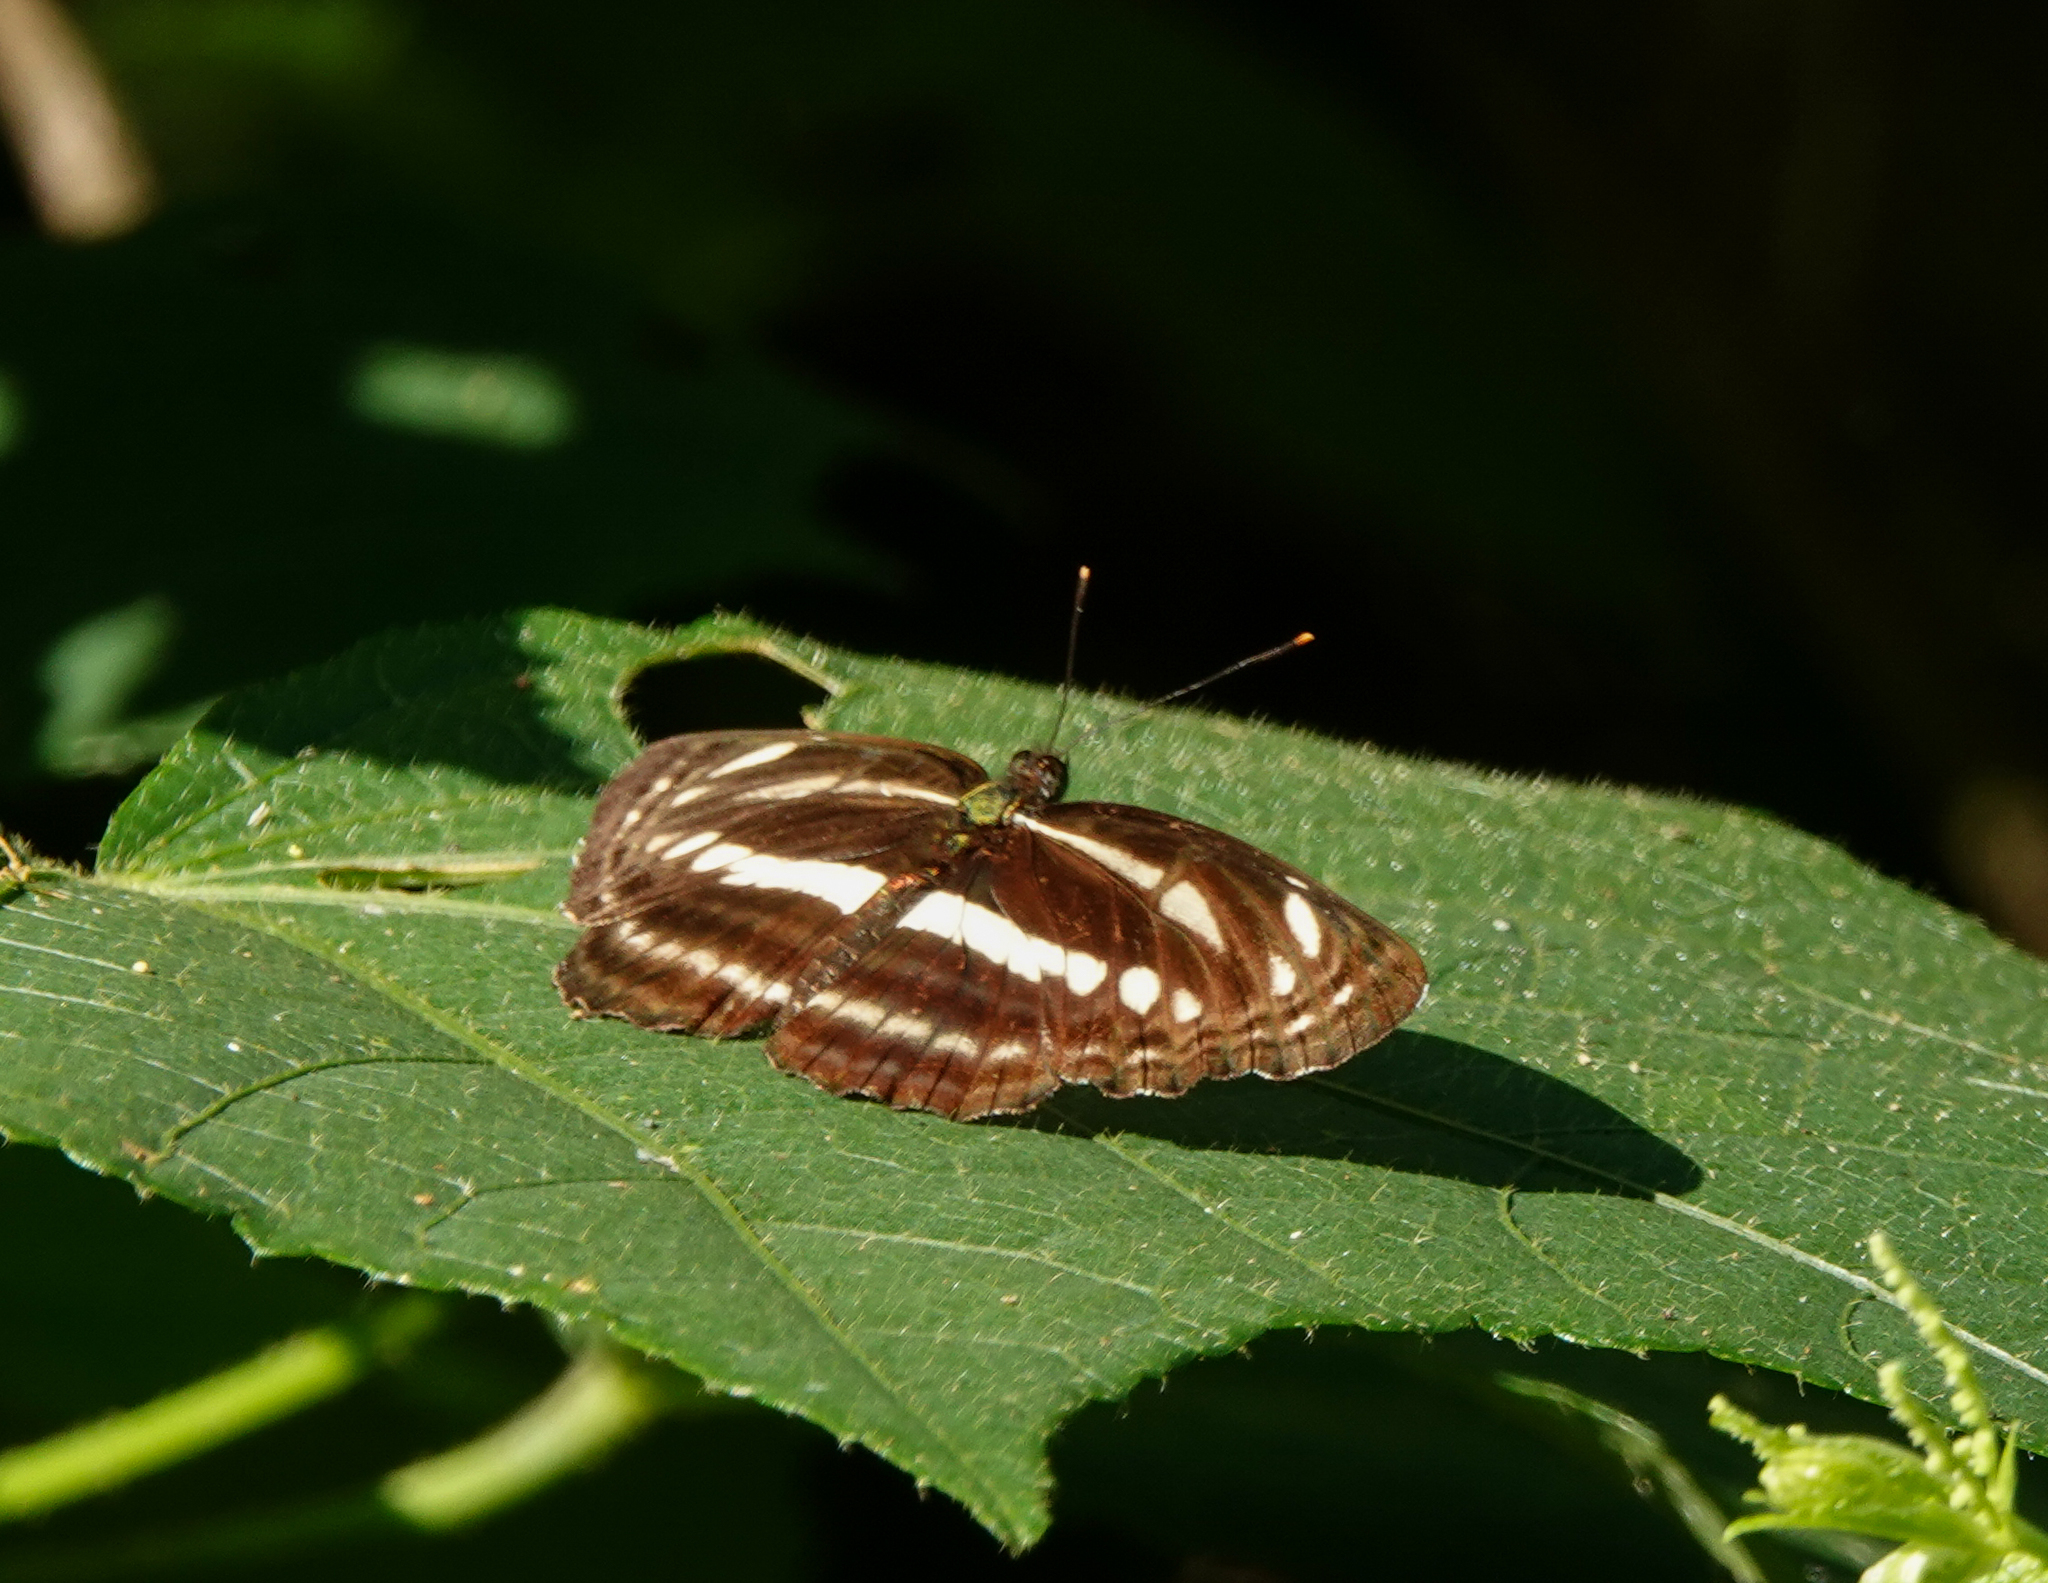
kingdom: Animalia
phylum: Arthropoda
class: Insecta
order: Lepidoptera
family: Nymphalidae
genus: Neptis
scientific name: Neptis clinia
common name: Southern sullied sailer
